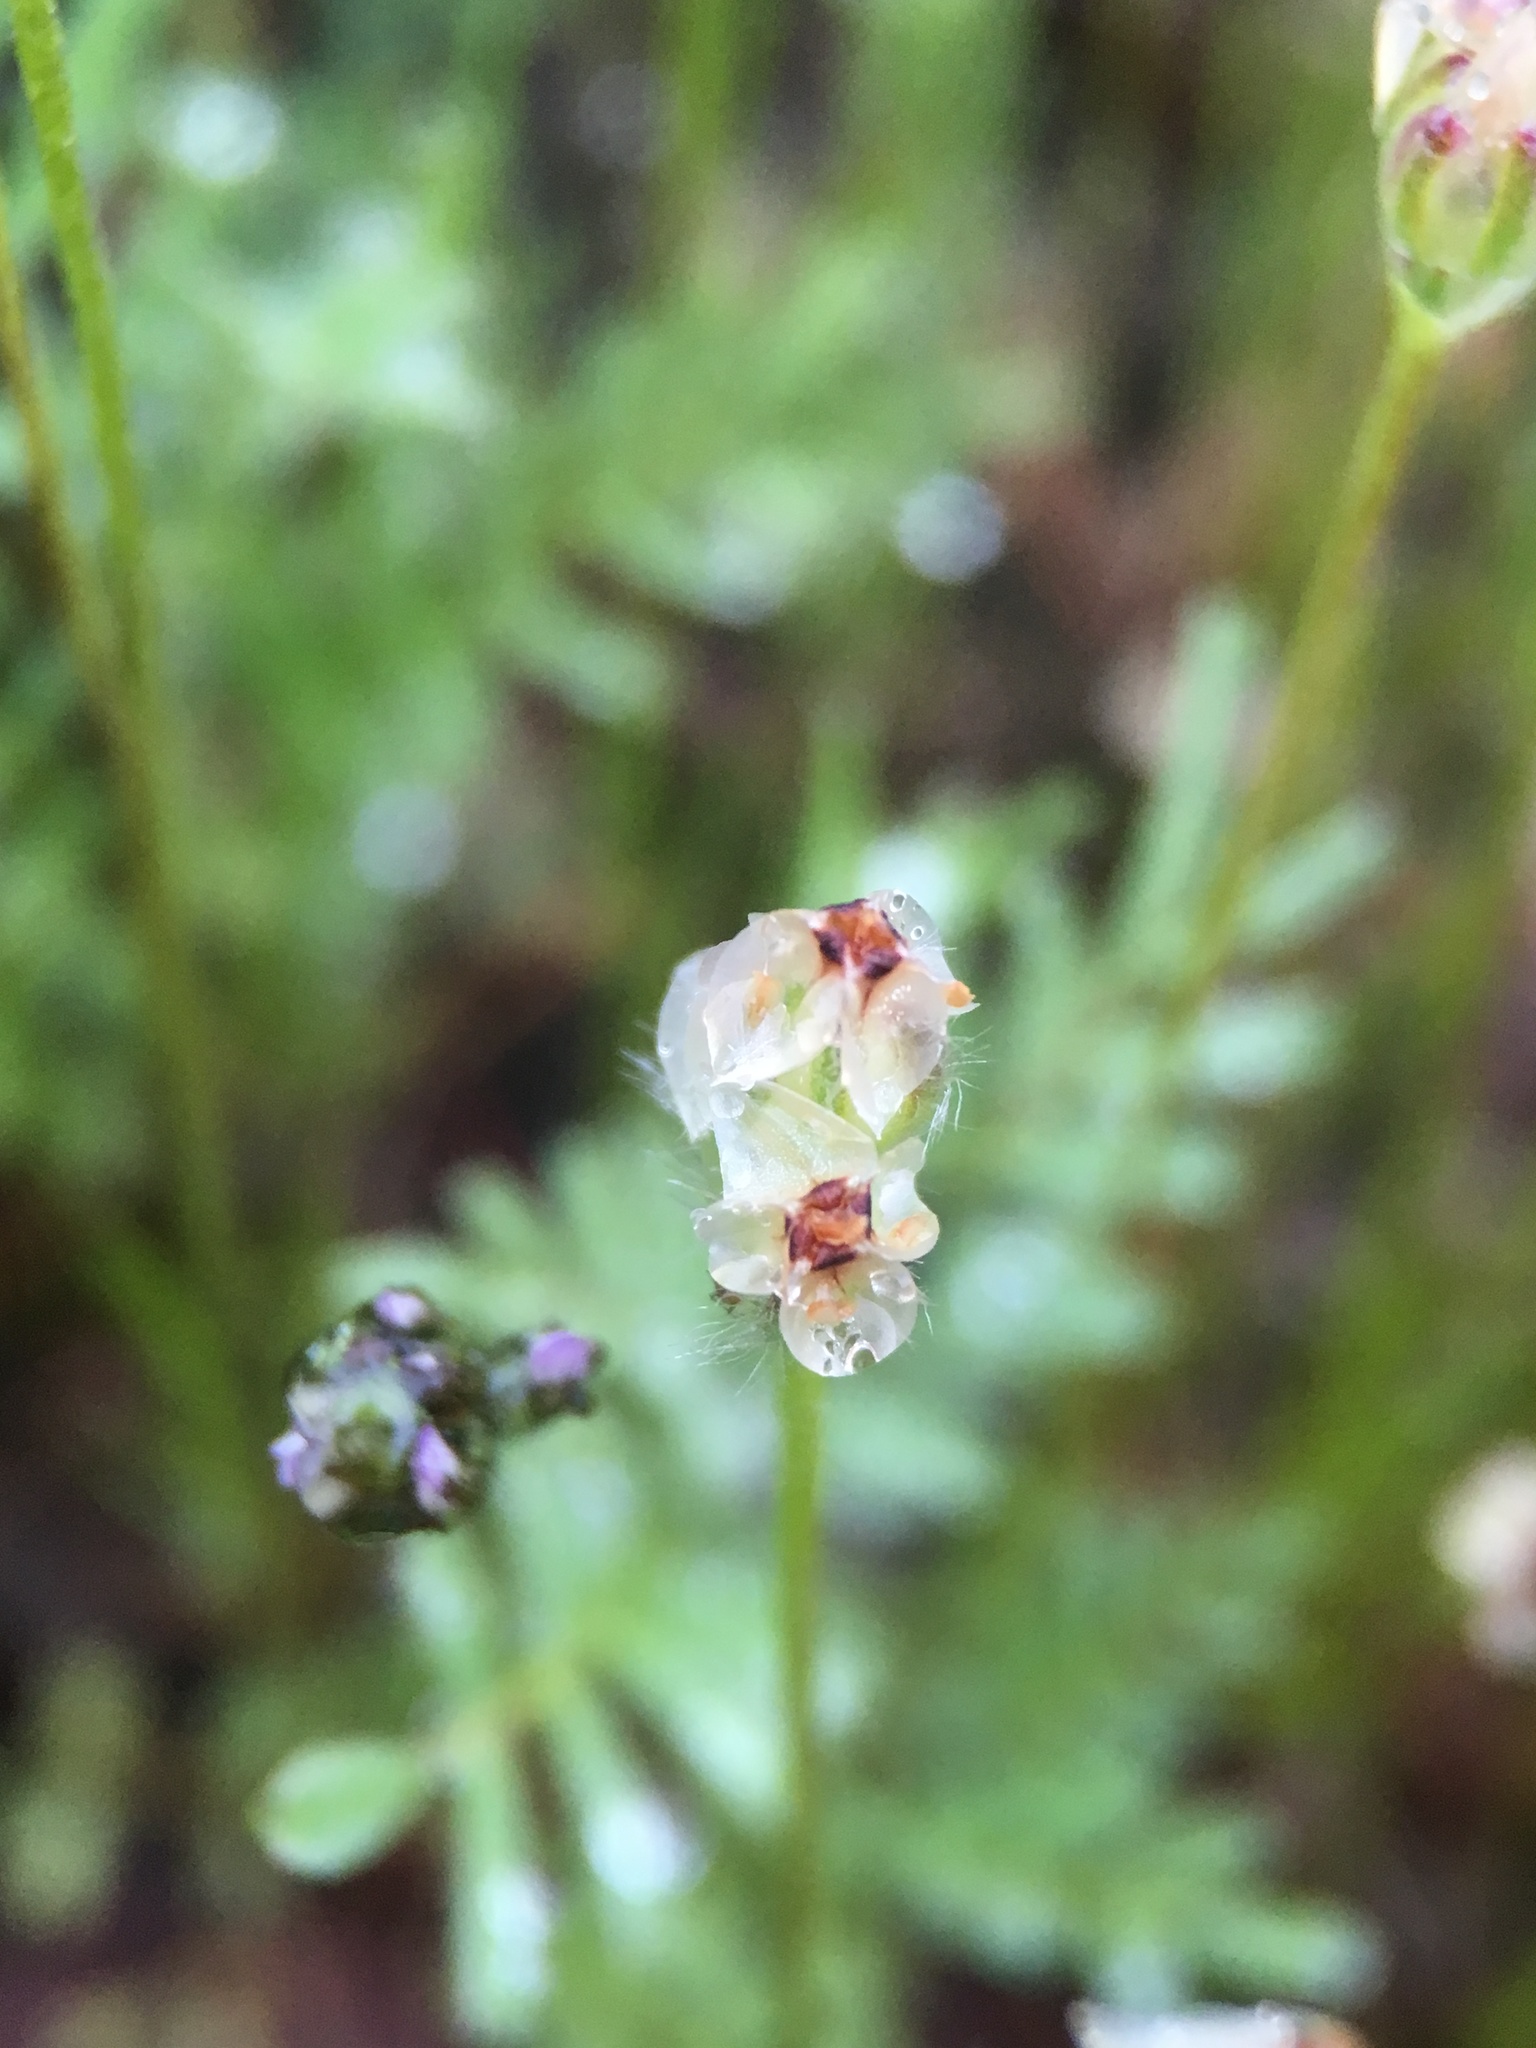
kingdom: Plantae
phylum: Tracheophyta
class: Magnoliopsida
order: Lamiales
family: Plantaginaceae
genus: Plantago
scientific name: Plantago erecta
